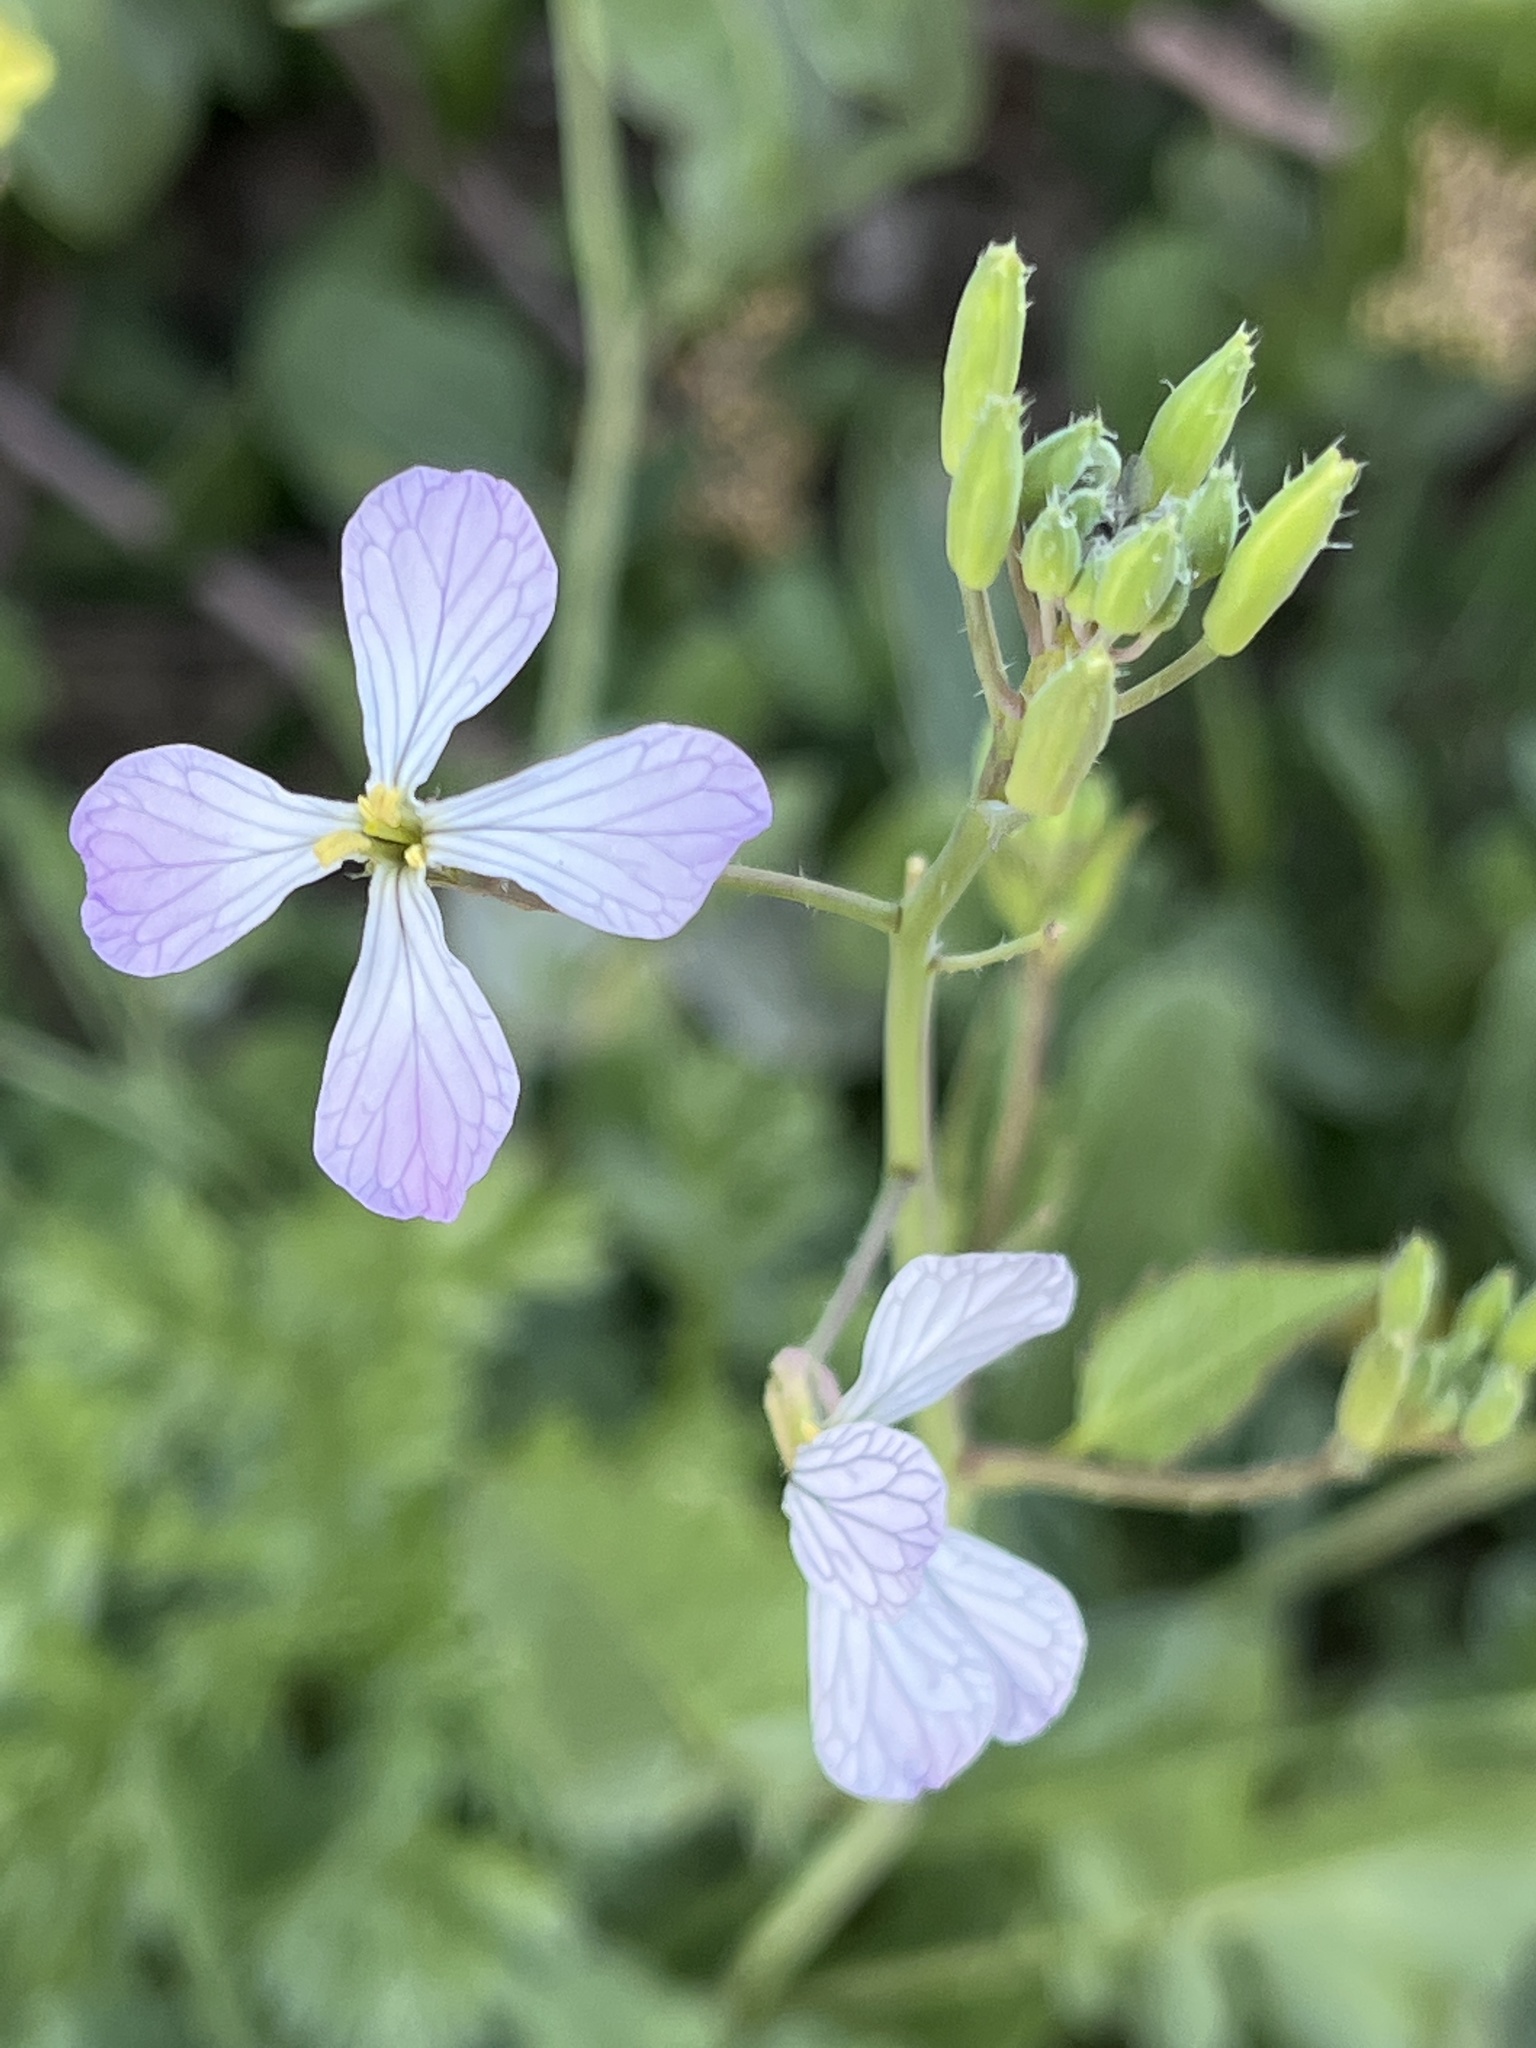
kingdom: Plantae
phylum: Tracheophyta
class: Magnoliopsida
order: Brassicales
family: Brassicaceae
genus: Raphanus
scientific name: Raphanus sativus
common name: Cultivated radish
